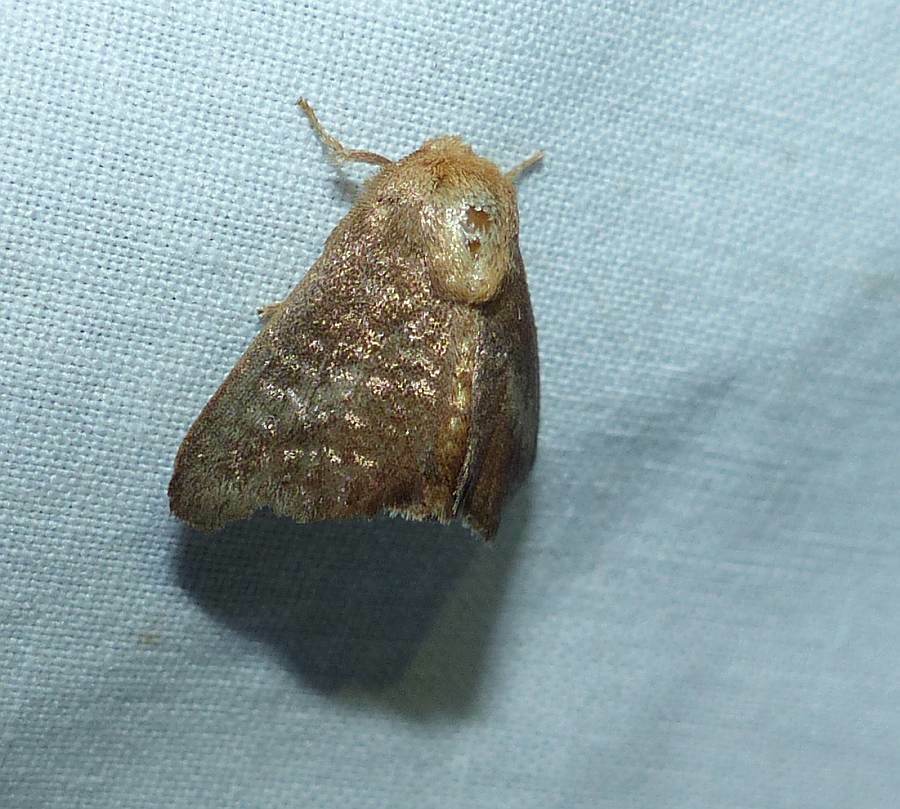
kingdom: Animalia
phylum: Arthropoda
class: Insecta
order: Lepidoptera
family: Limacodidae
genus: Isa
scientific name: Isa textula
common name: Crowned slug moth
